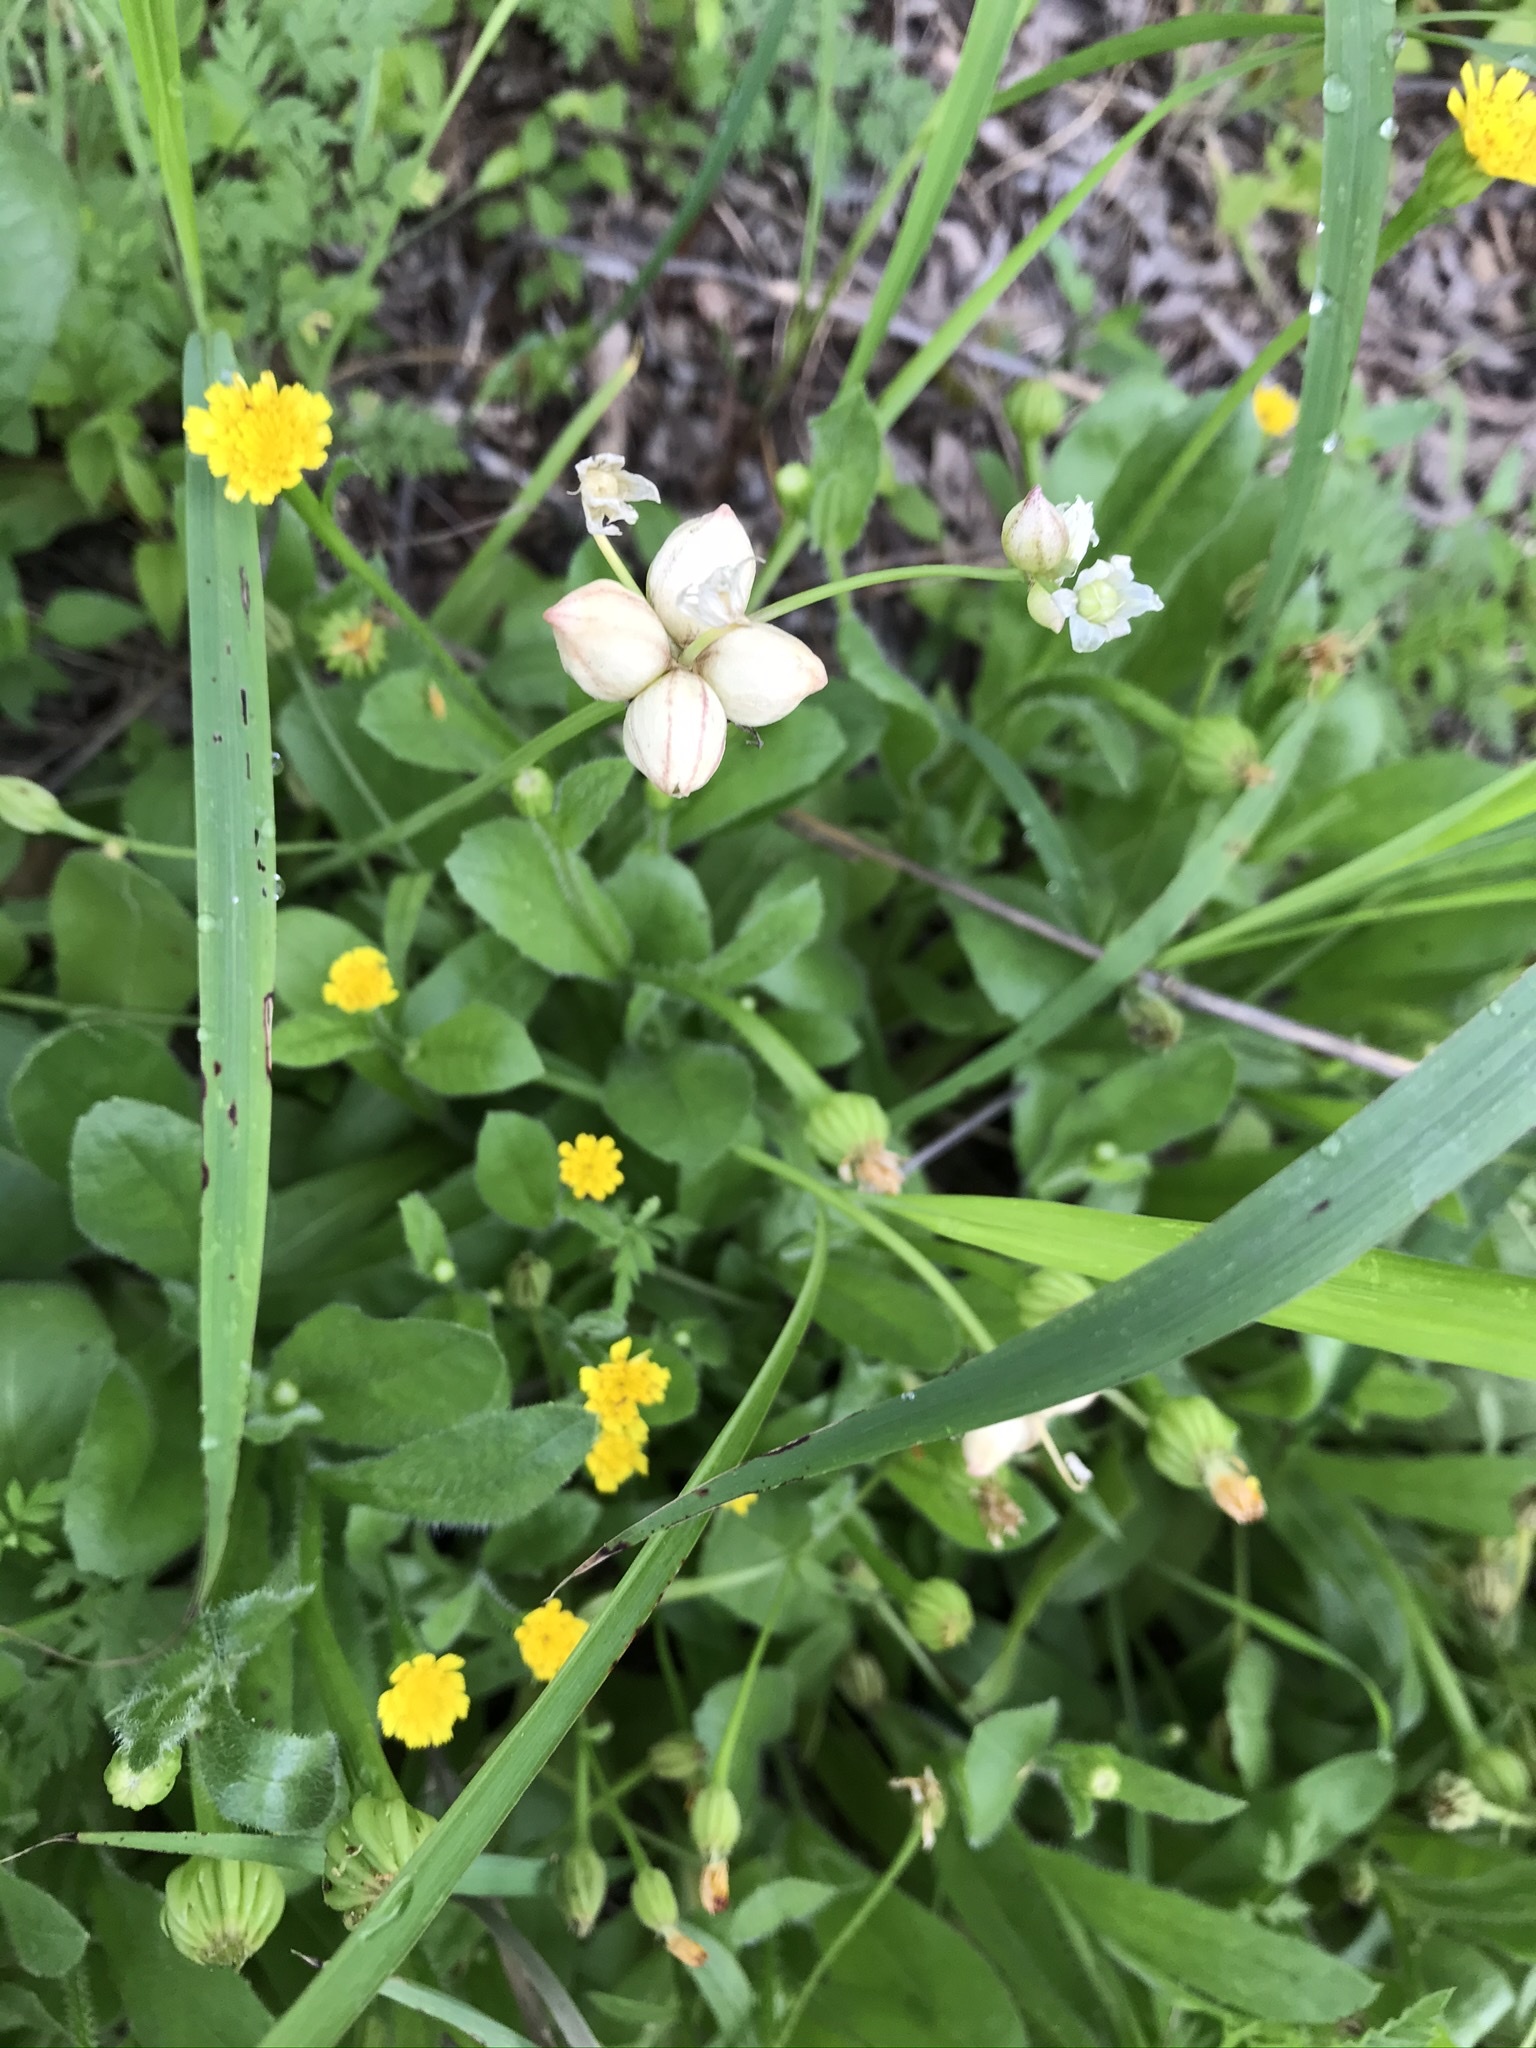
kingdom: Plantae
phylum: Tracheophyta
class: Liliopsida
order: Asparagales
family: Amaryllidaceae
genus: Allium
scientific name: Allium canadense
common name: Meadow garlic
